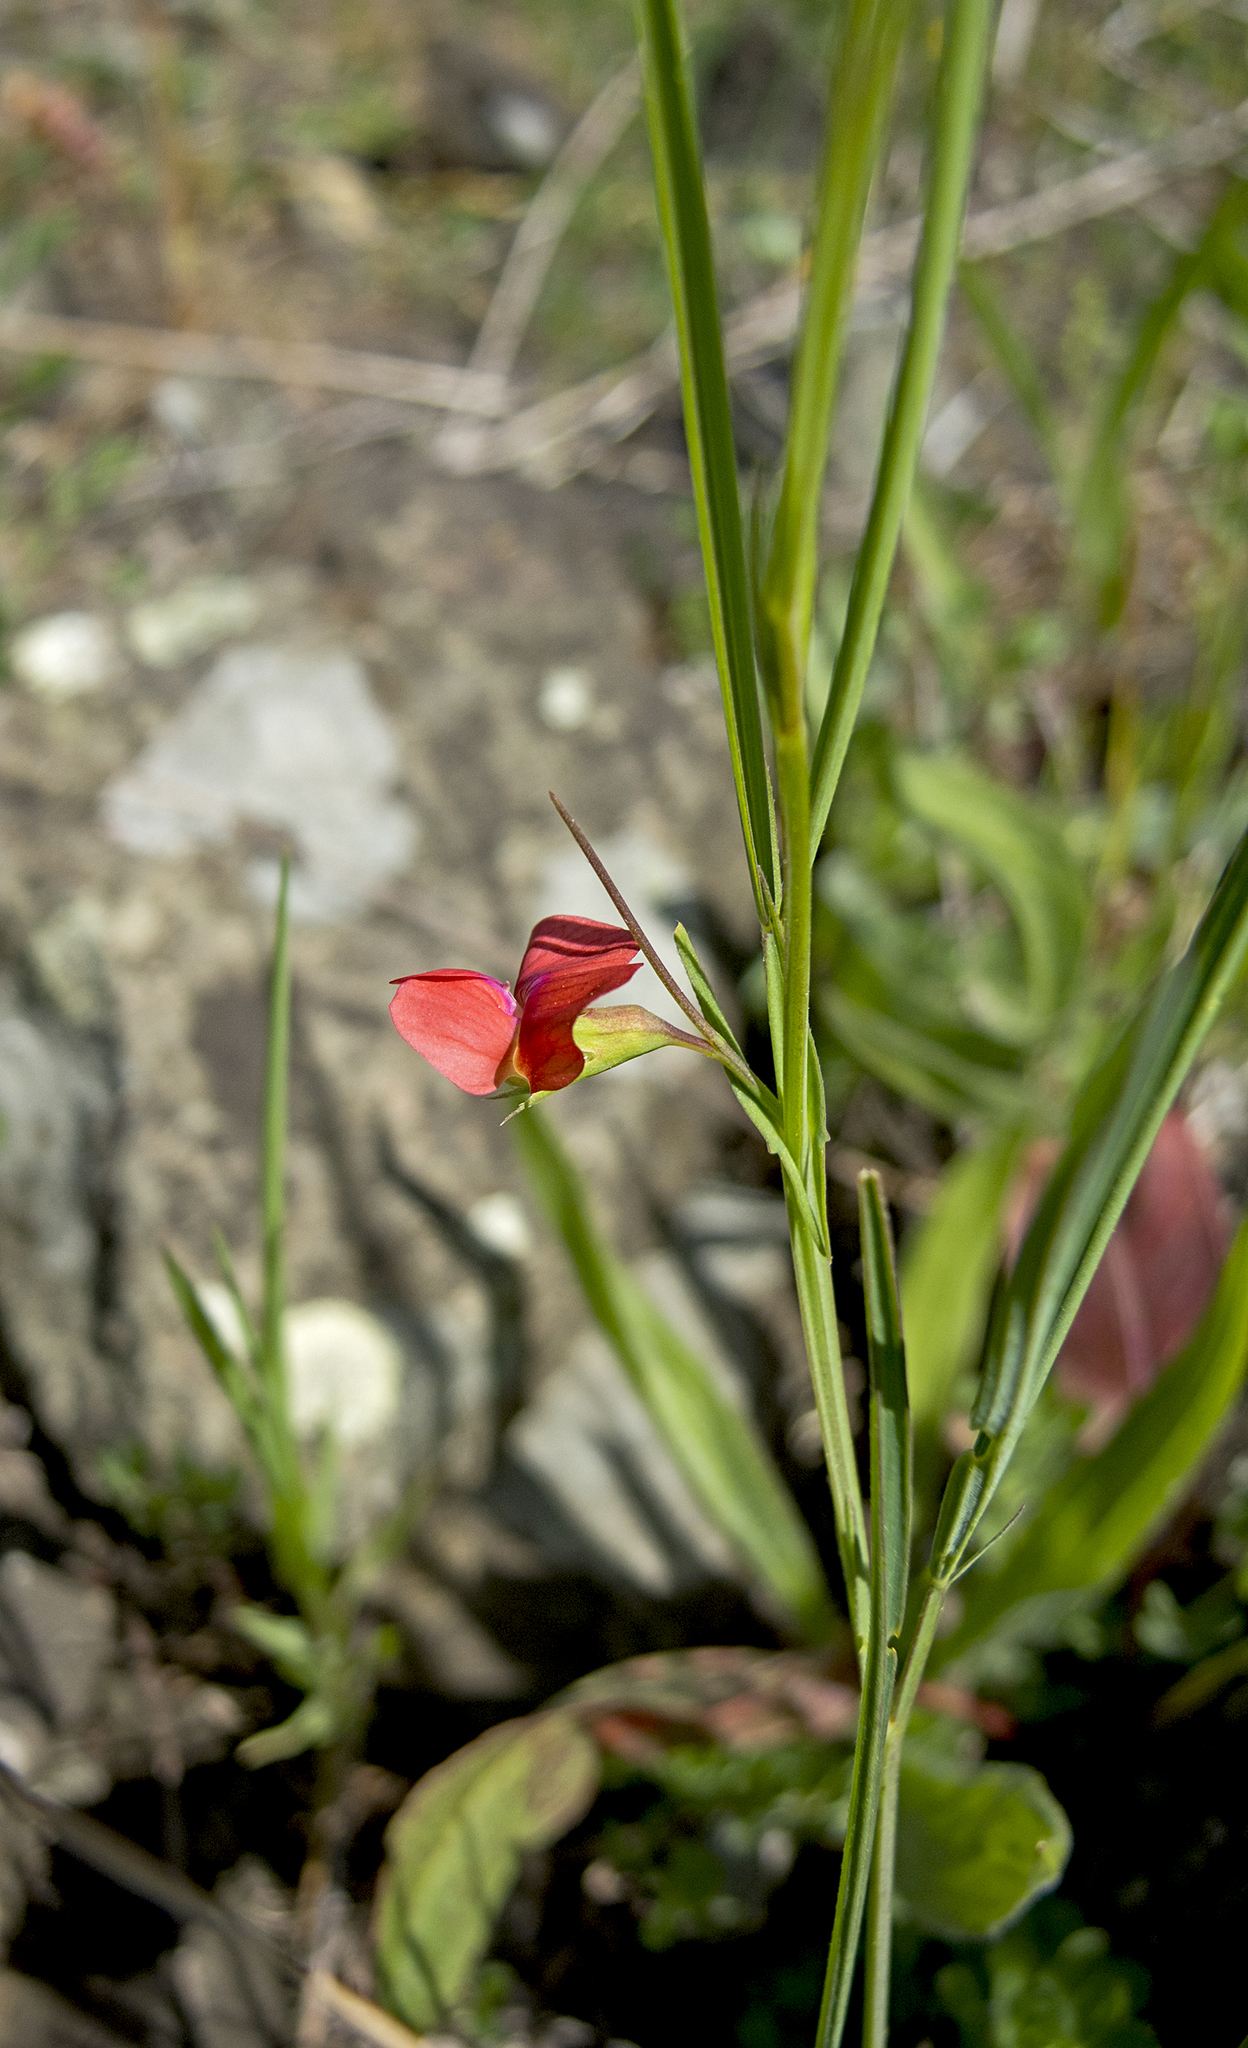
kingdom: Plantae
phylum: Tracheophyta
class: Magnoliopsida
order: Fabales
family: Fabaceae
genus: Lathyrus
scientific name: Lathyrus sphaericus
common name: Grass pea
